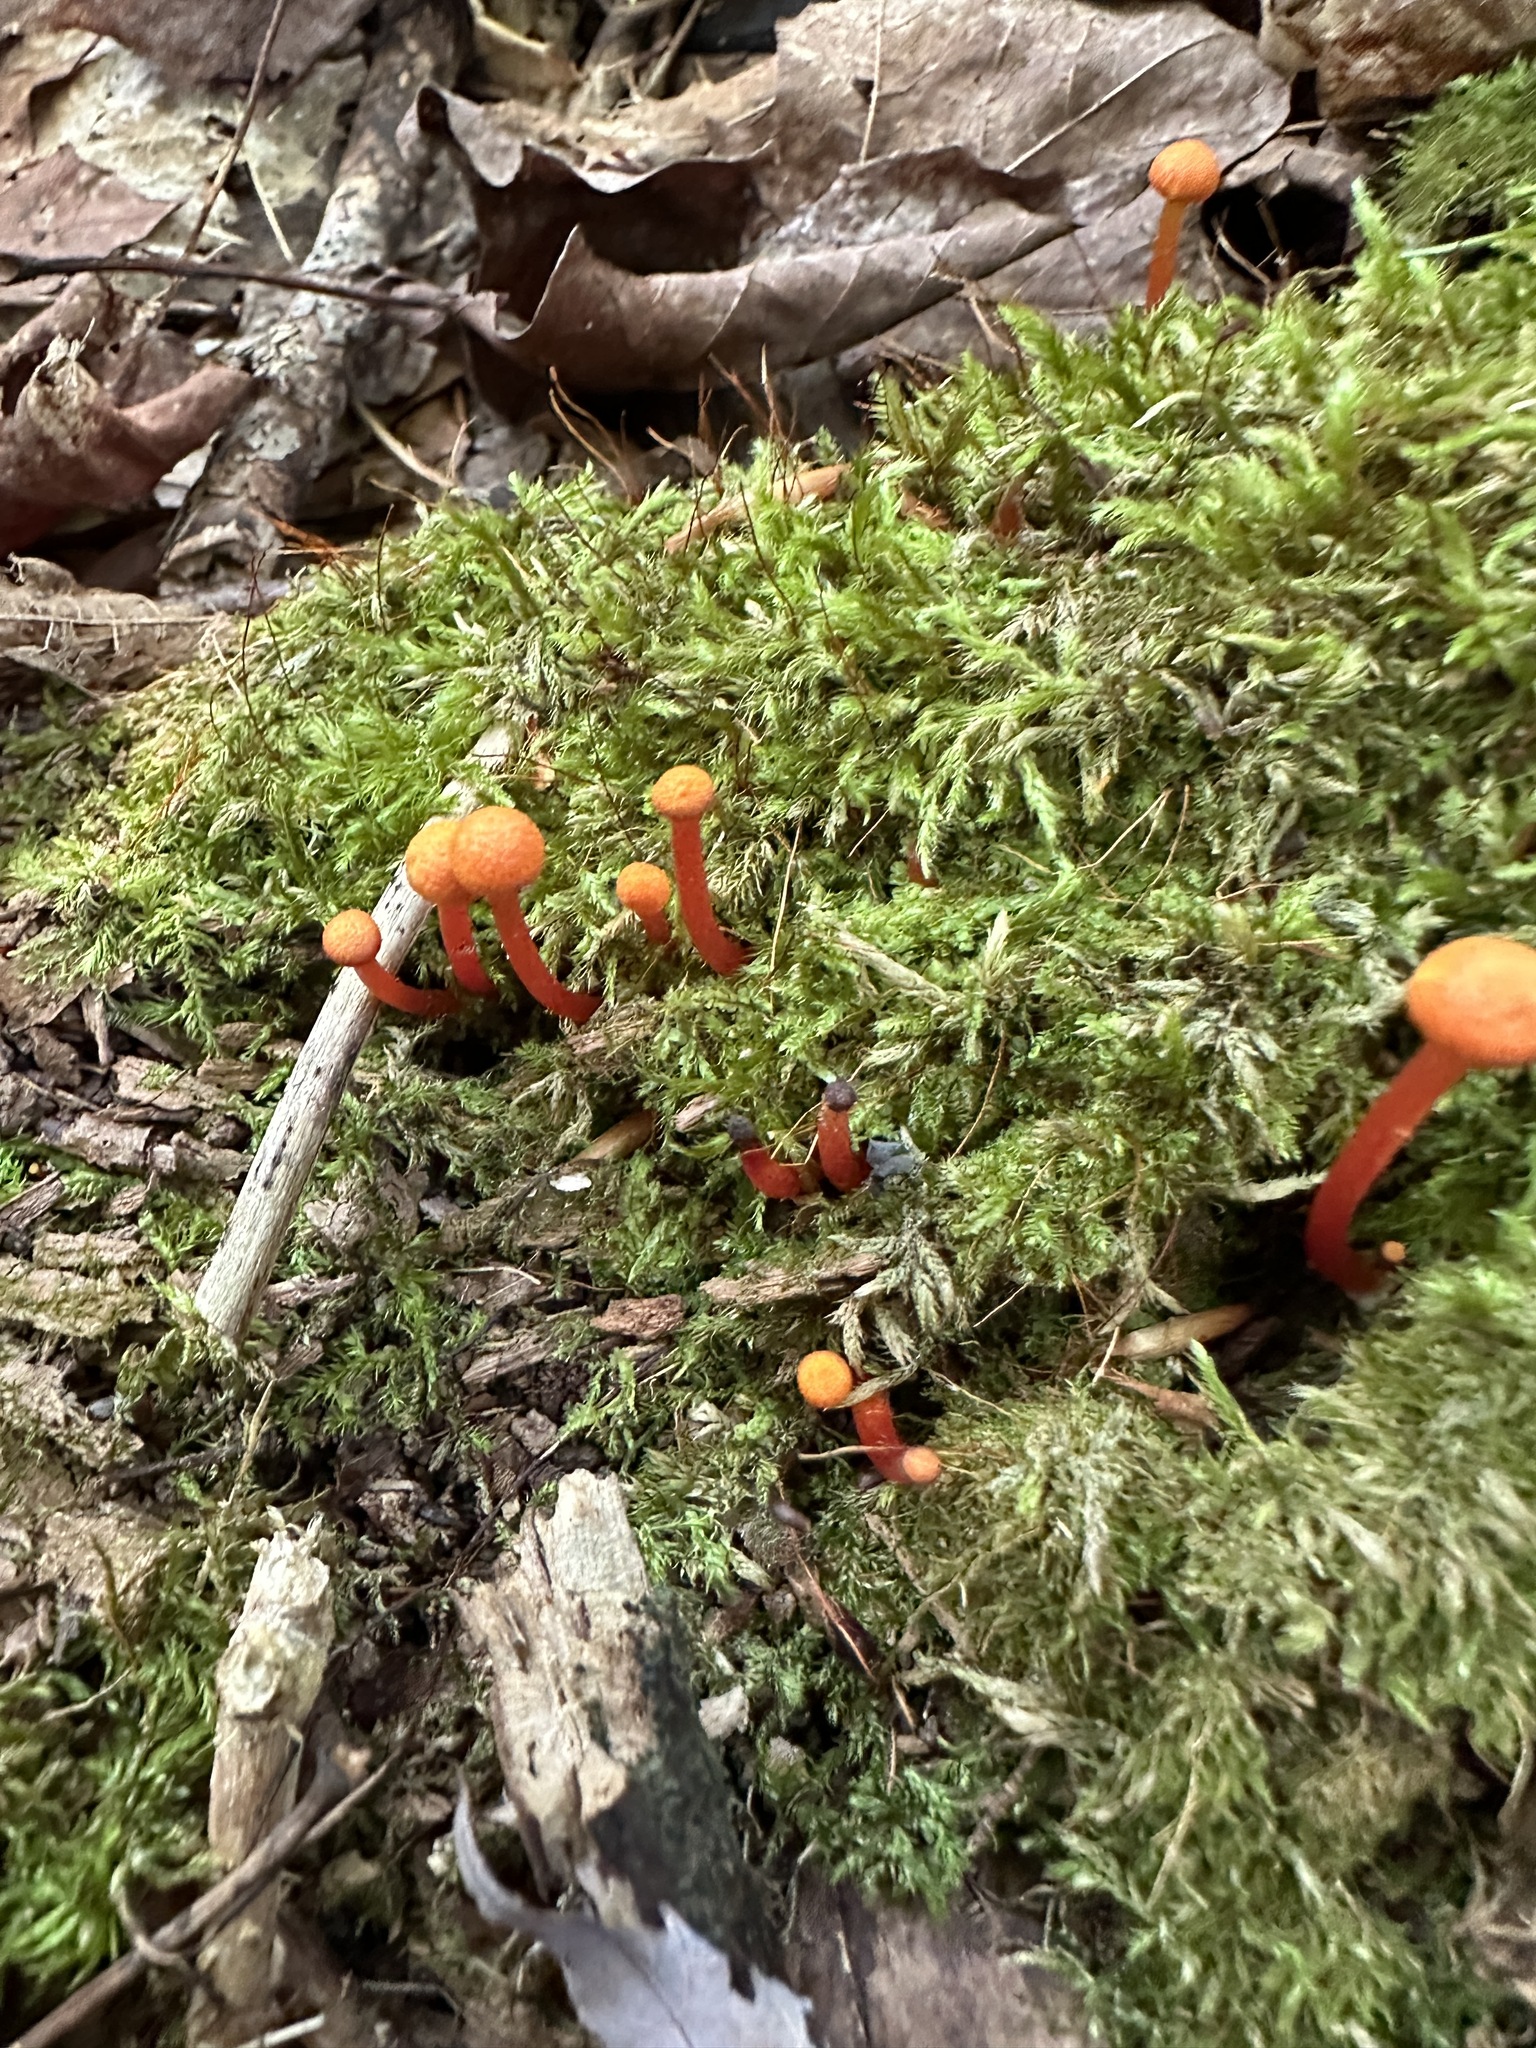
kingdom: Fungi
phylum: Basidiomycota
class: Agaricomycetes
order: Agaricales
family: Hygrophoraceae
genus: Hygrocybe
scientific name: Hygrocybe cantharellus
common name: Goblet waxcap
